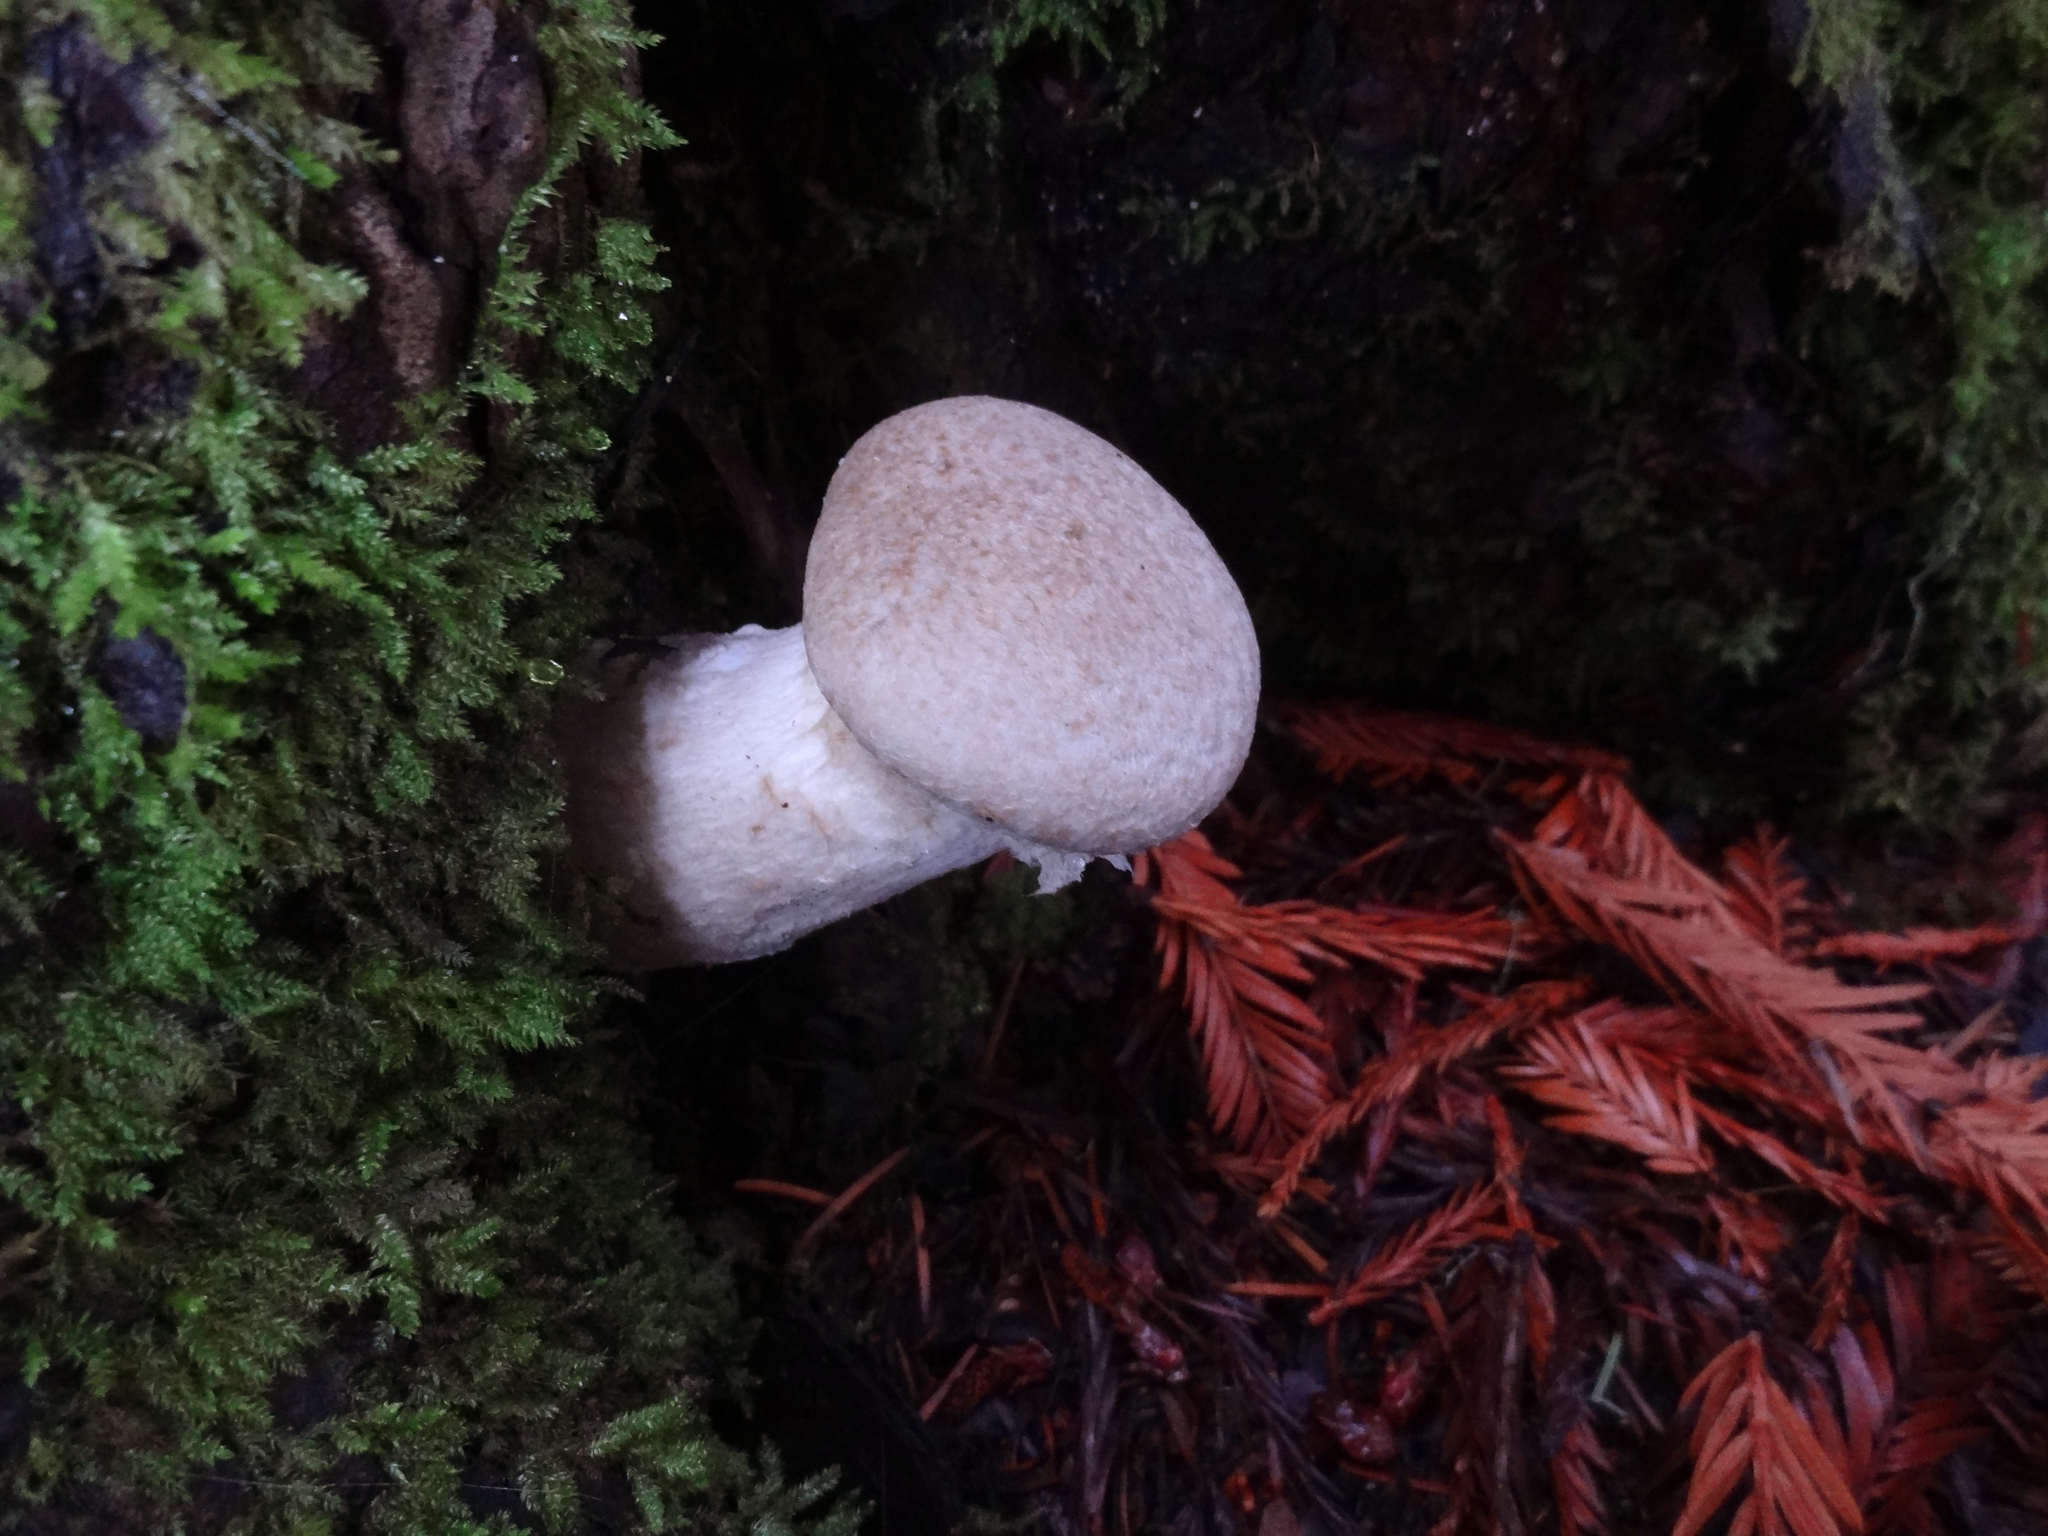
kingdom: Fungi
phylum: Basidiomycota
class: Agaricomycetes
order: Agaricales
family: Pleurotaceae
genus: Pleurotus
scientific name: Pleurotus dryinus
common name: Veiled oyster
